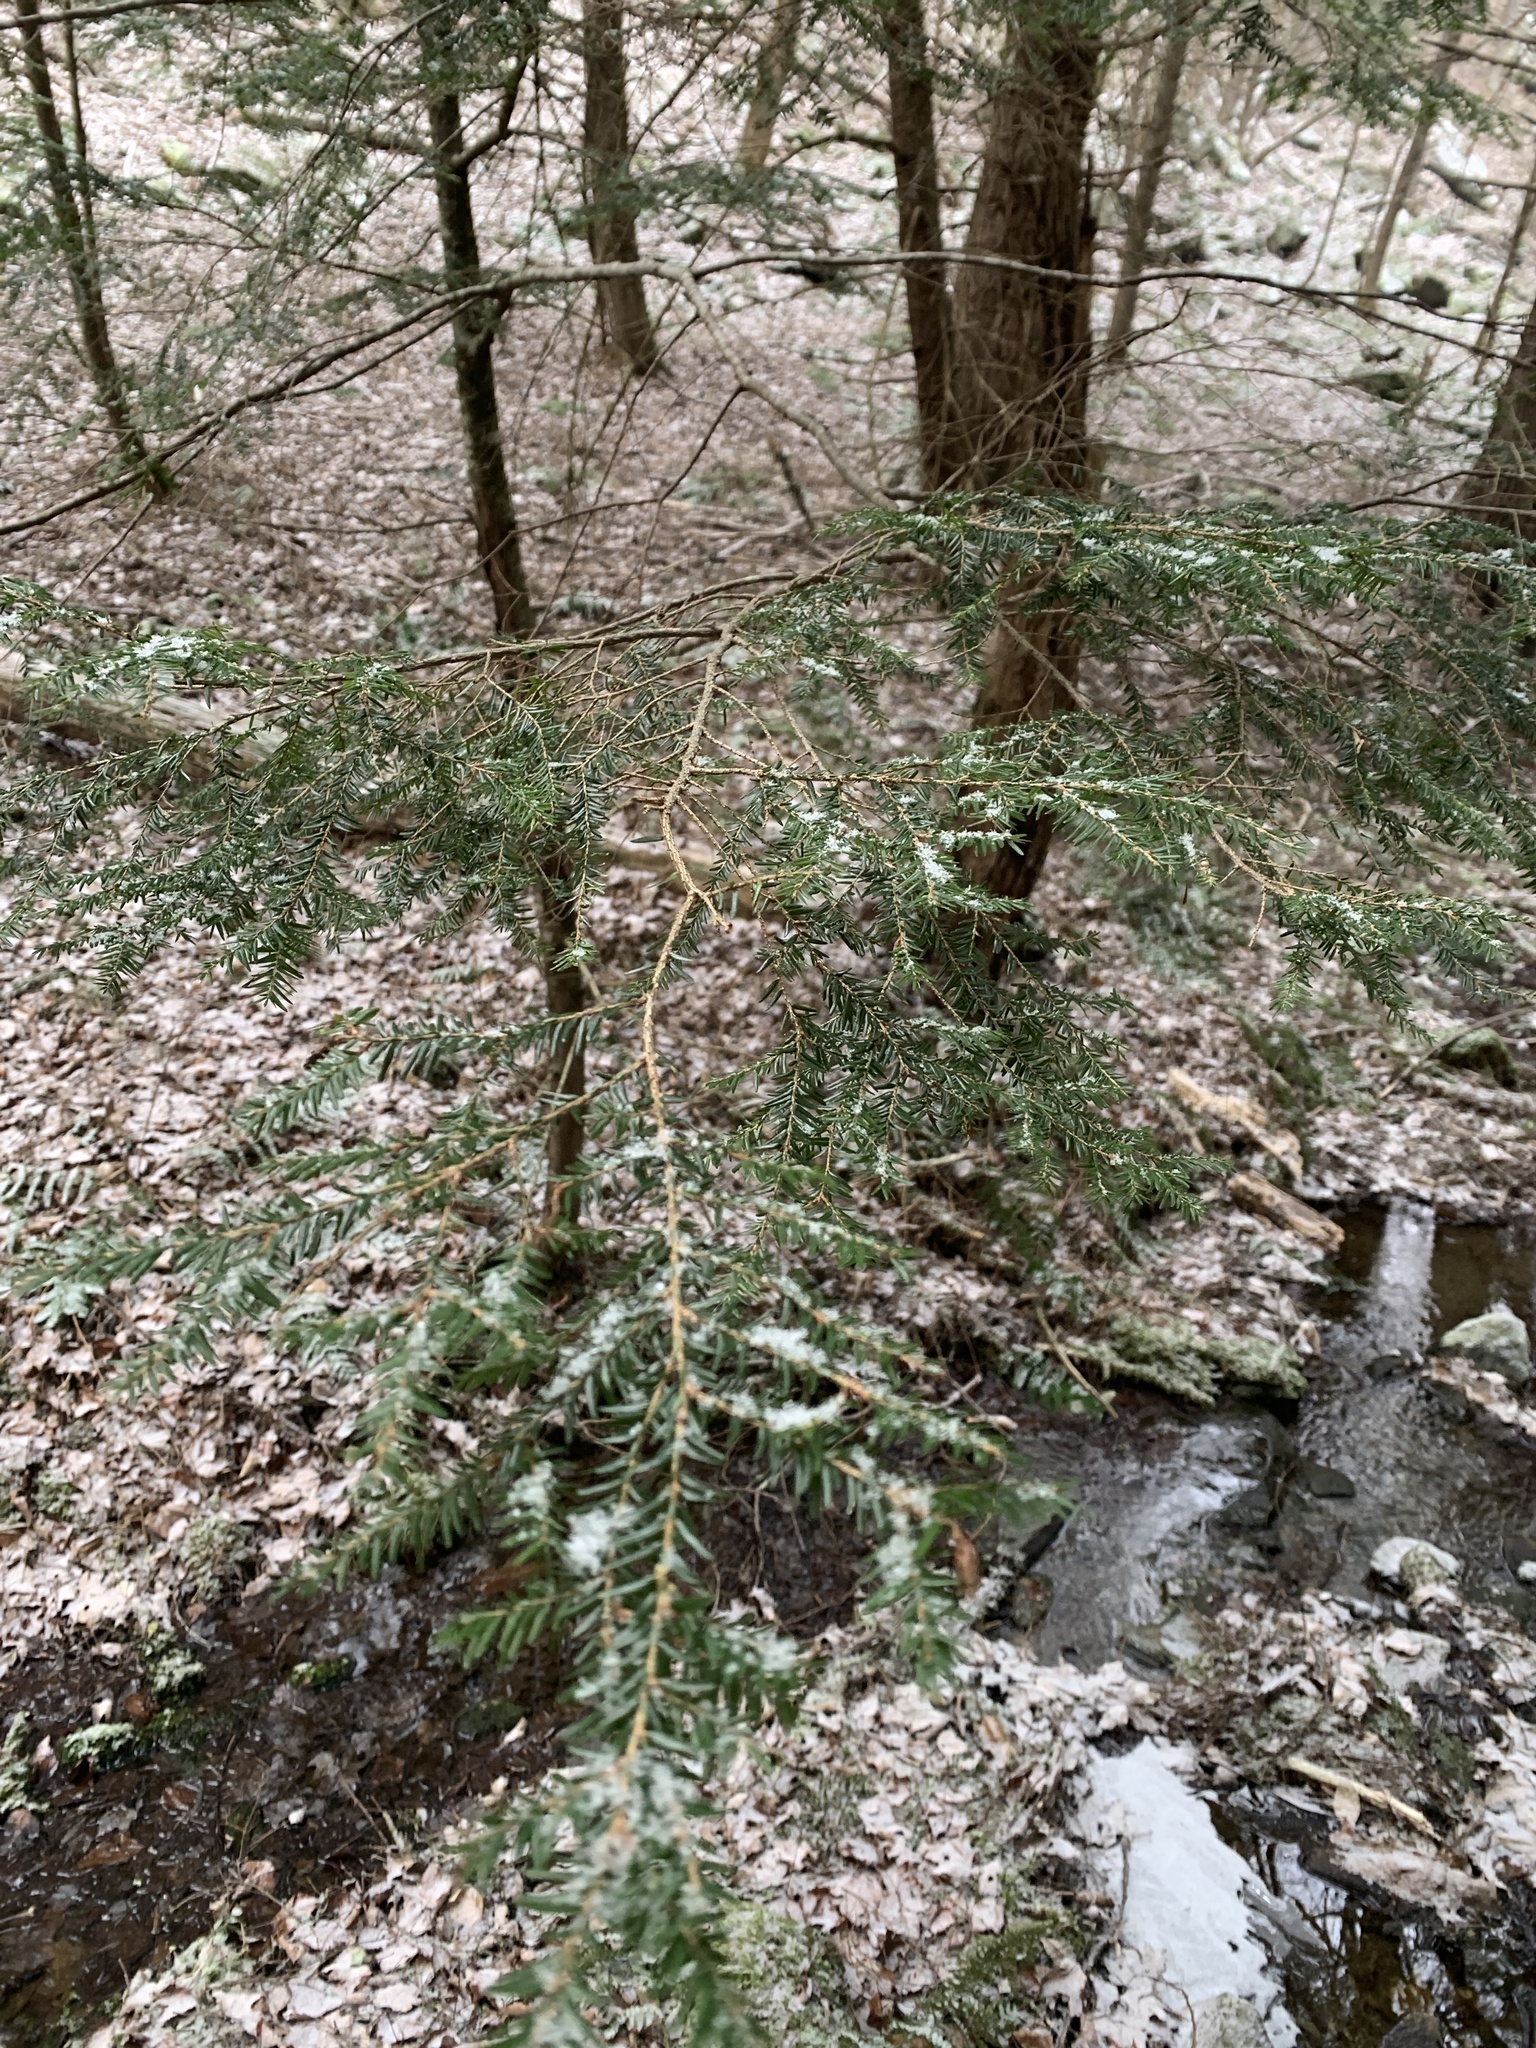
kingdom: Plantae
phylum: Tracheophyta
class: Pinopsida
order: Pinales
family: Pinaceae
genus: Tsuga
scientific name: Tsuga canadensis
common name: Eastern hemlock
